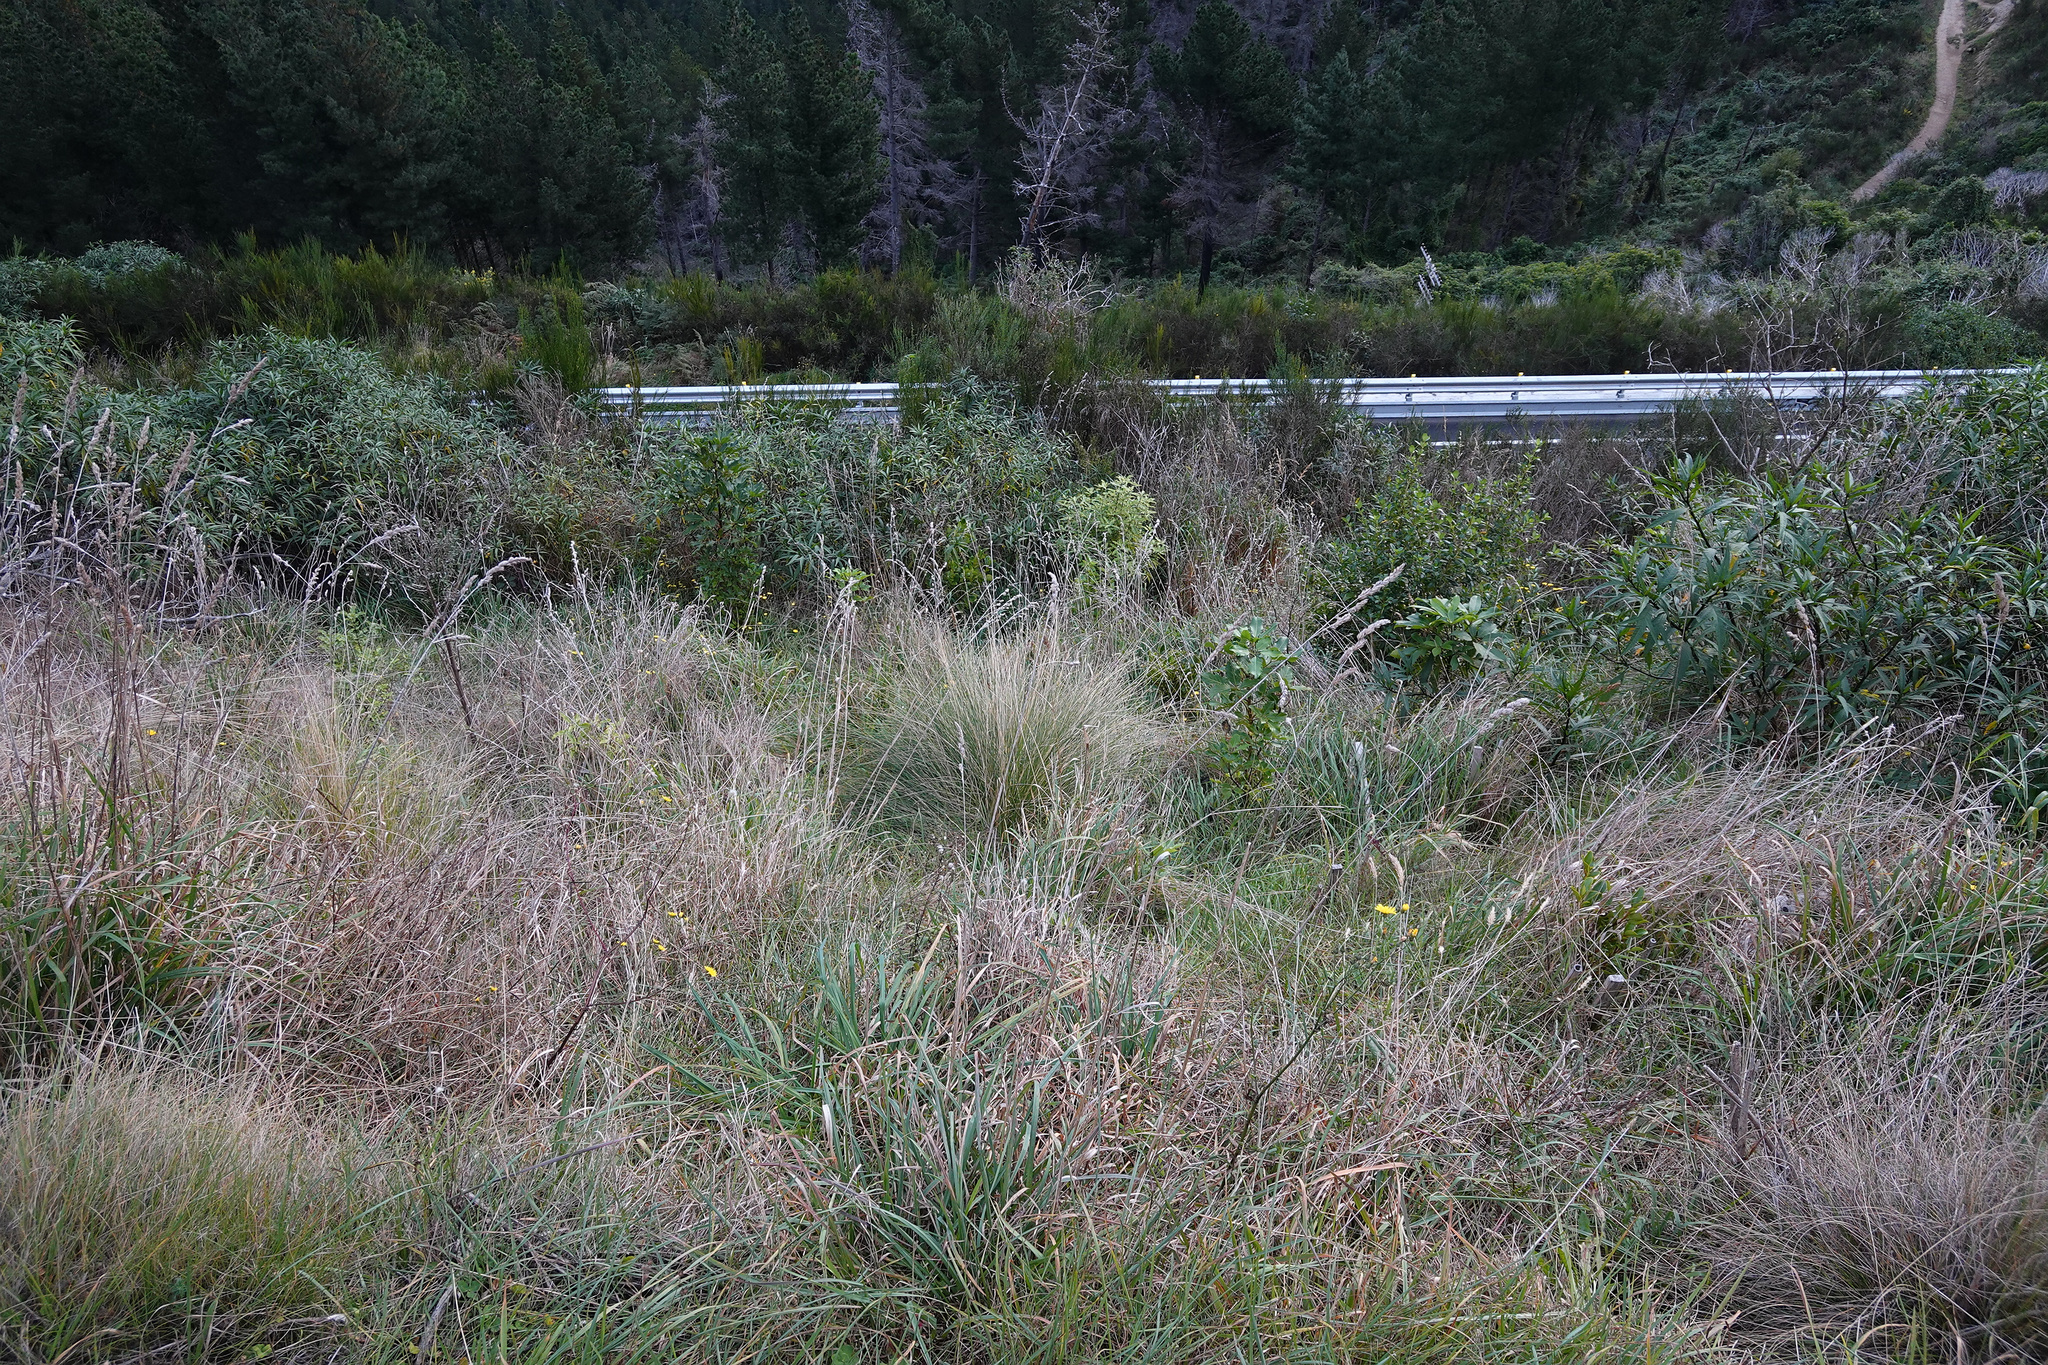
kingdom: Plantae
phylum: Tracheophyta
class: Liliopsida
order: Poales
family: Poaceae
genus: Dactylis
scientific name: Dactylis glomerata
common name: Orchardgrass
